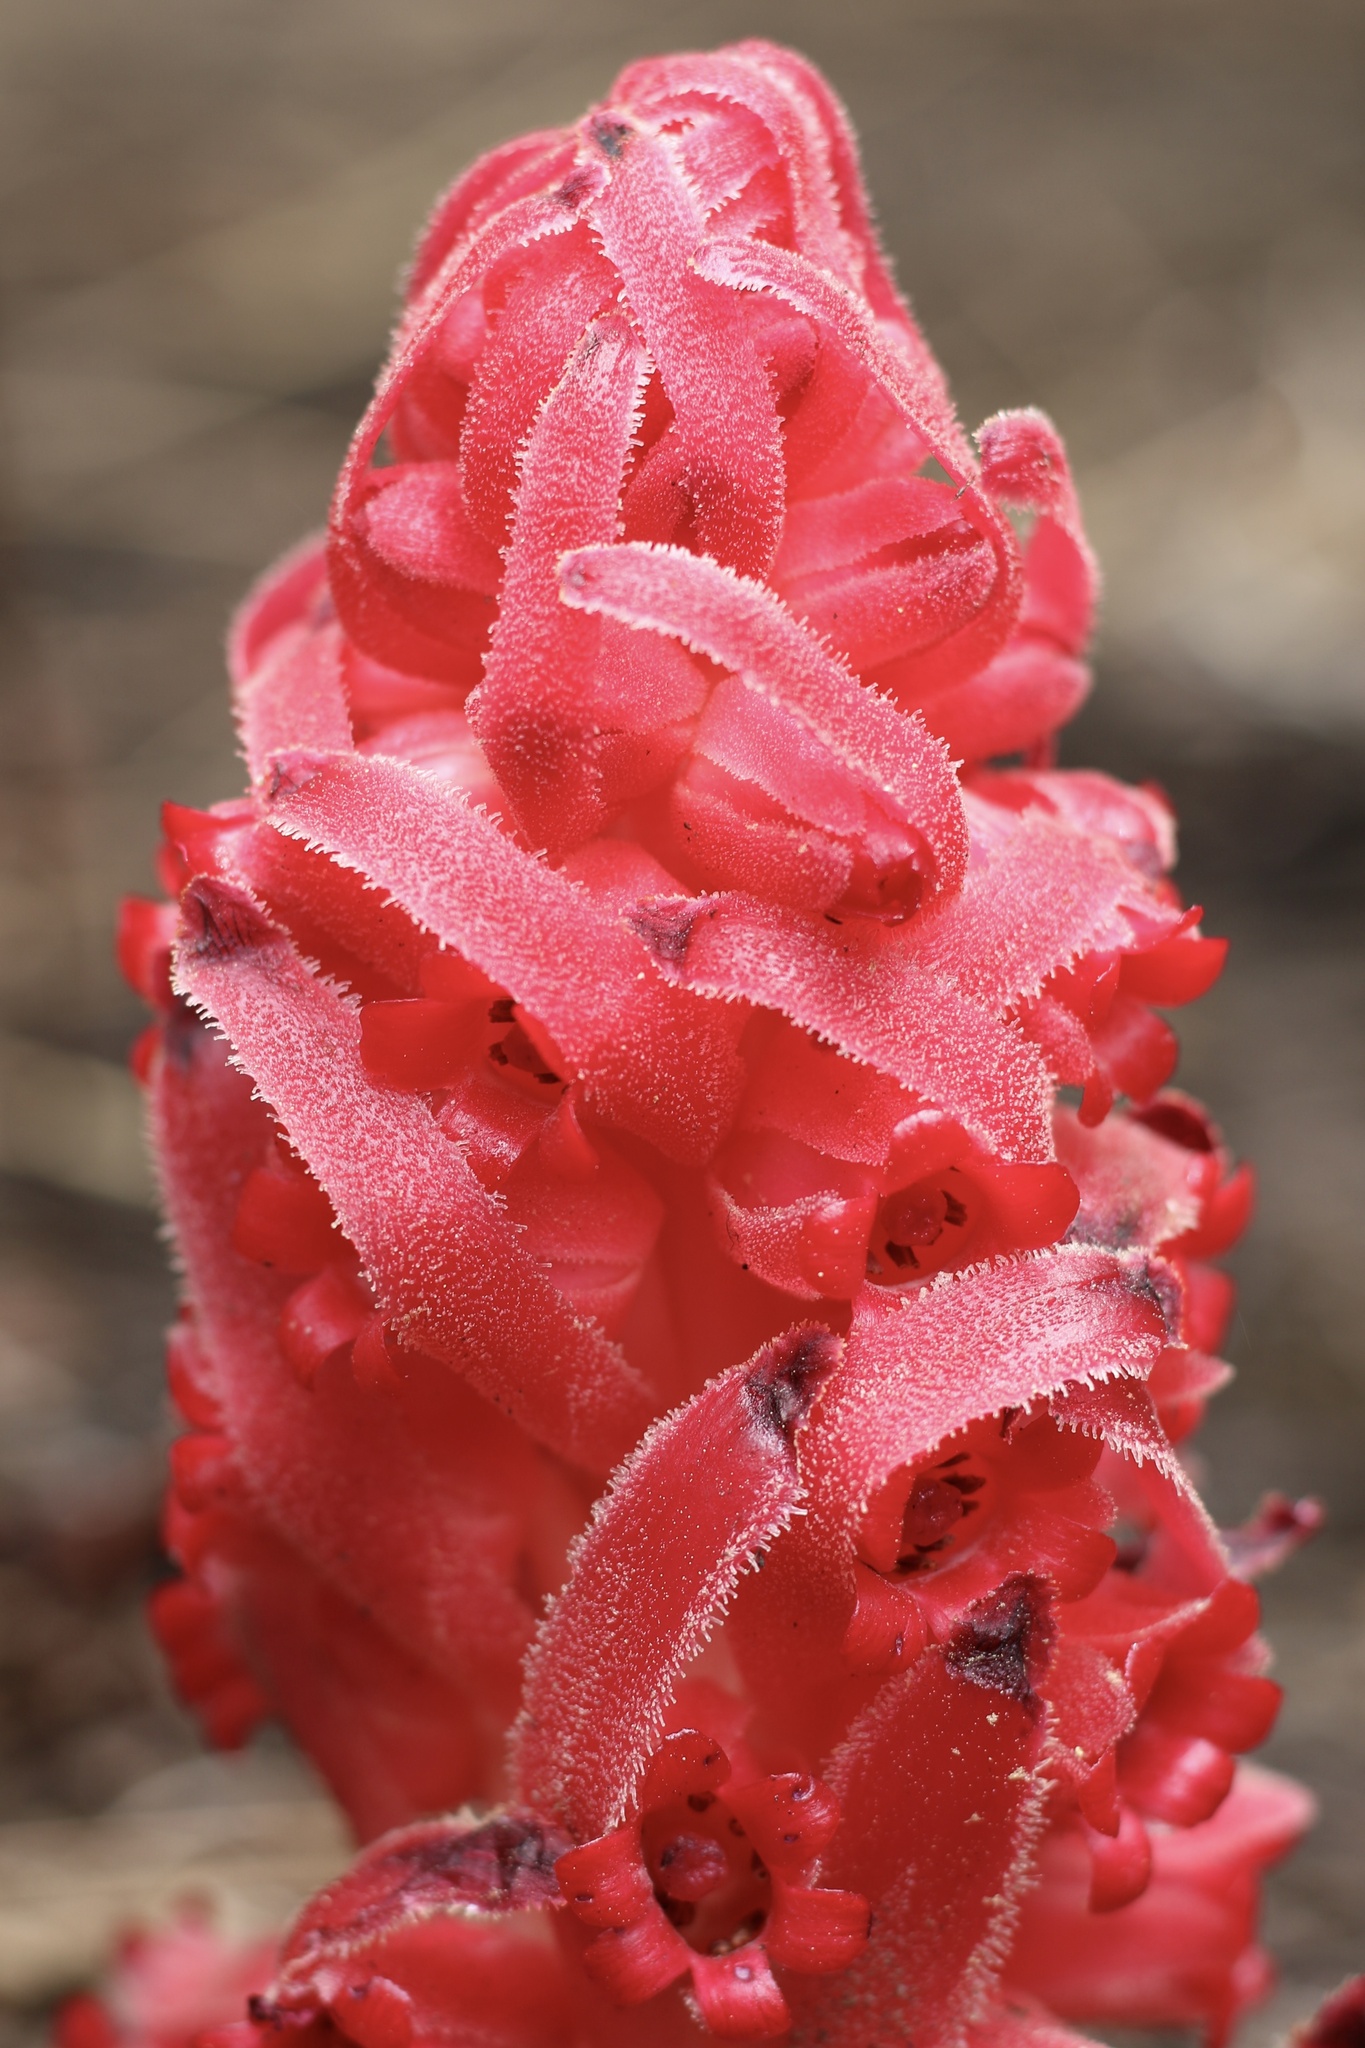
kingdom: Plantae
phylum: Tracheophyta
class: Magnoliopsida
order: Ericales
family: Ericaceae
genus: Sarcodes
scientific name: Sarcodes sanguinea
